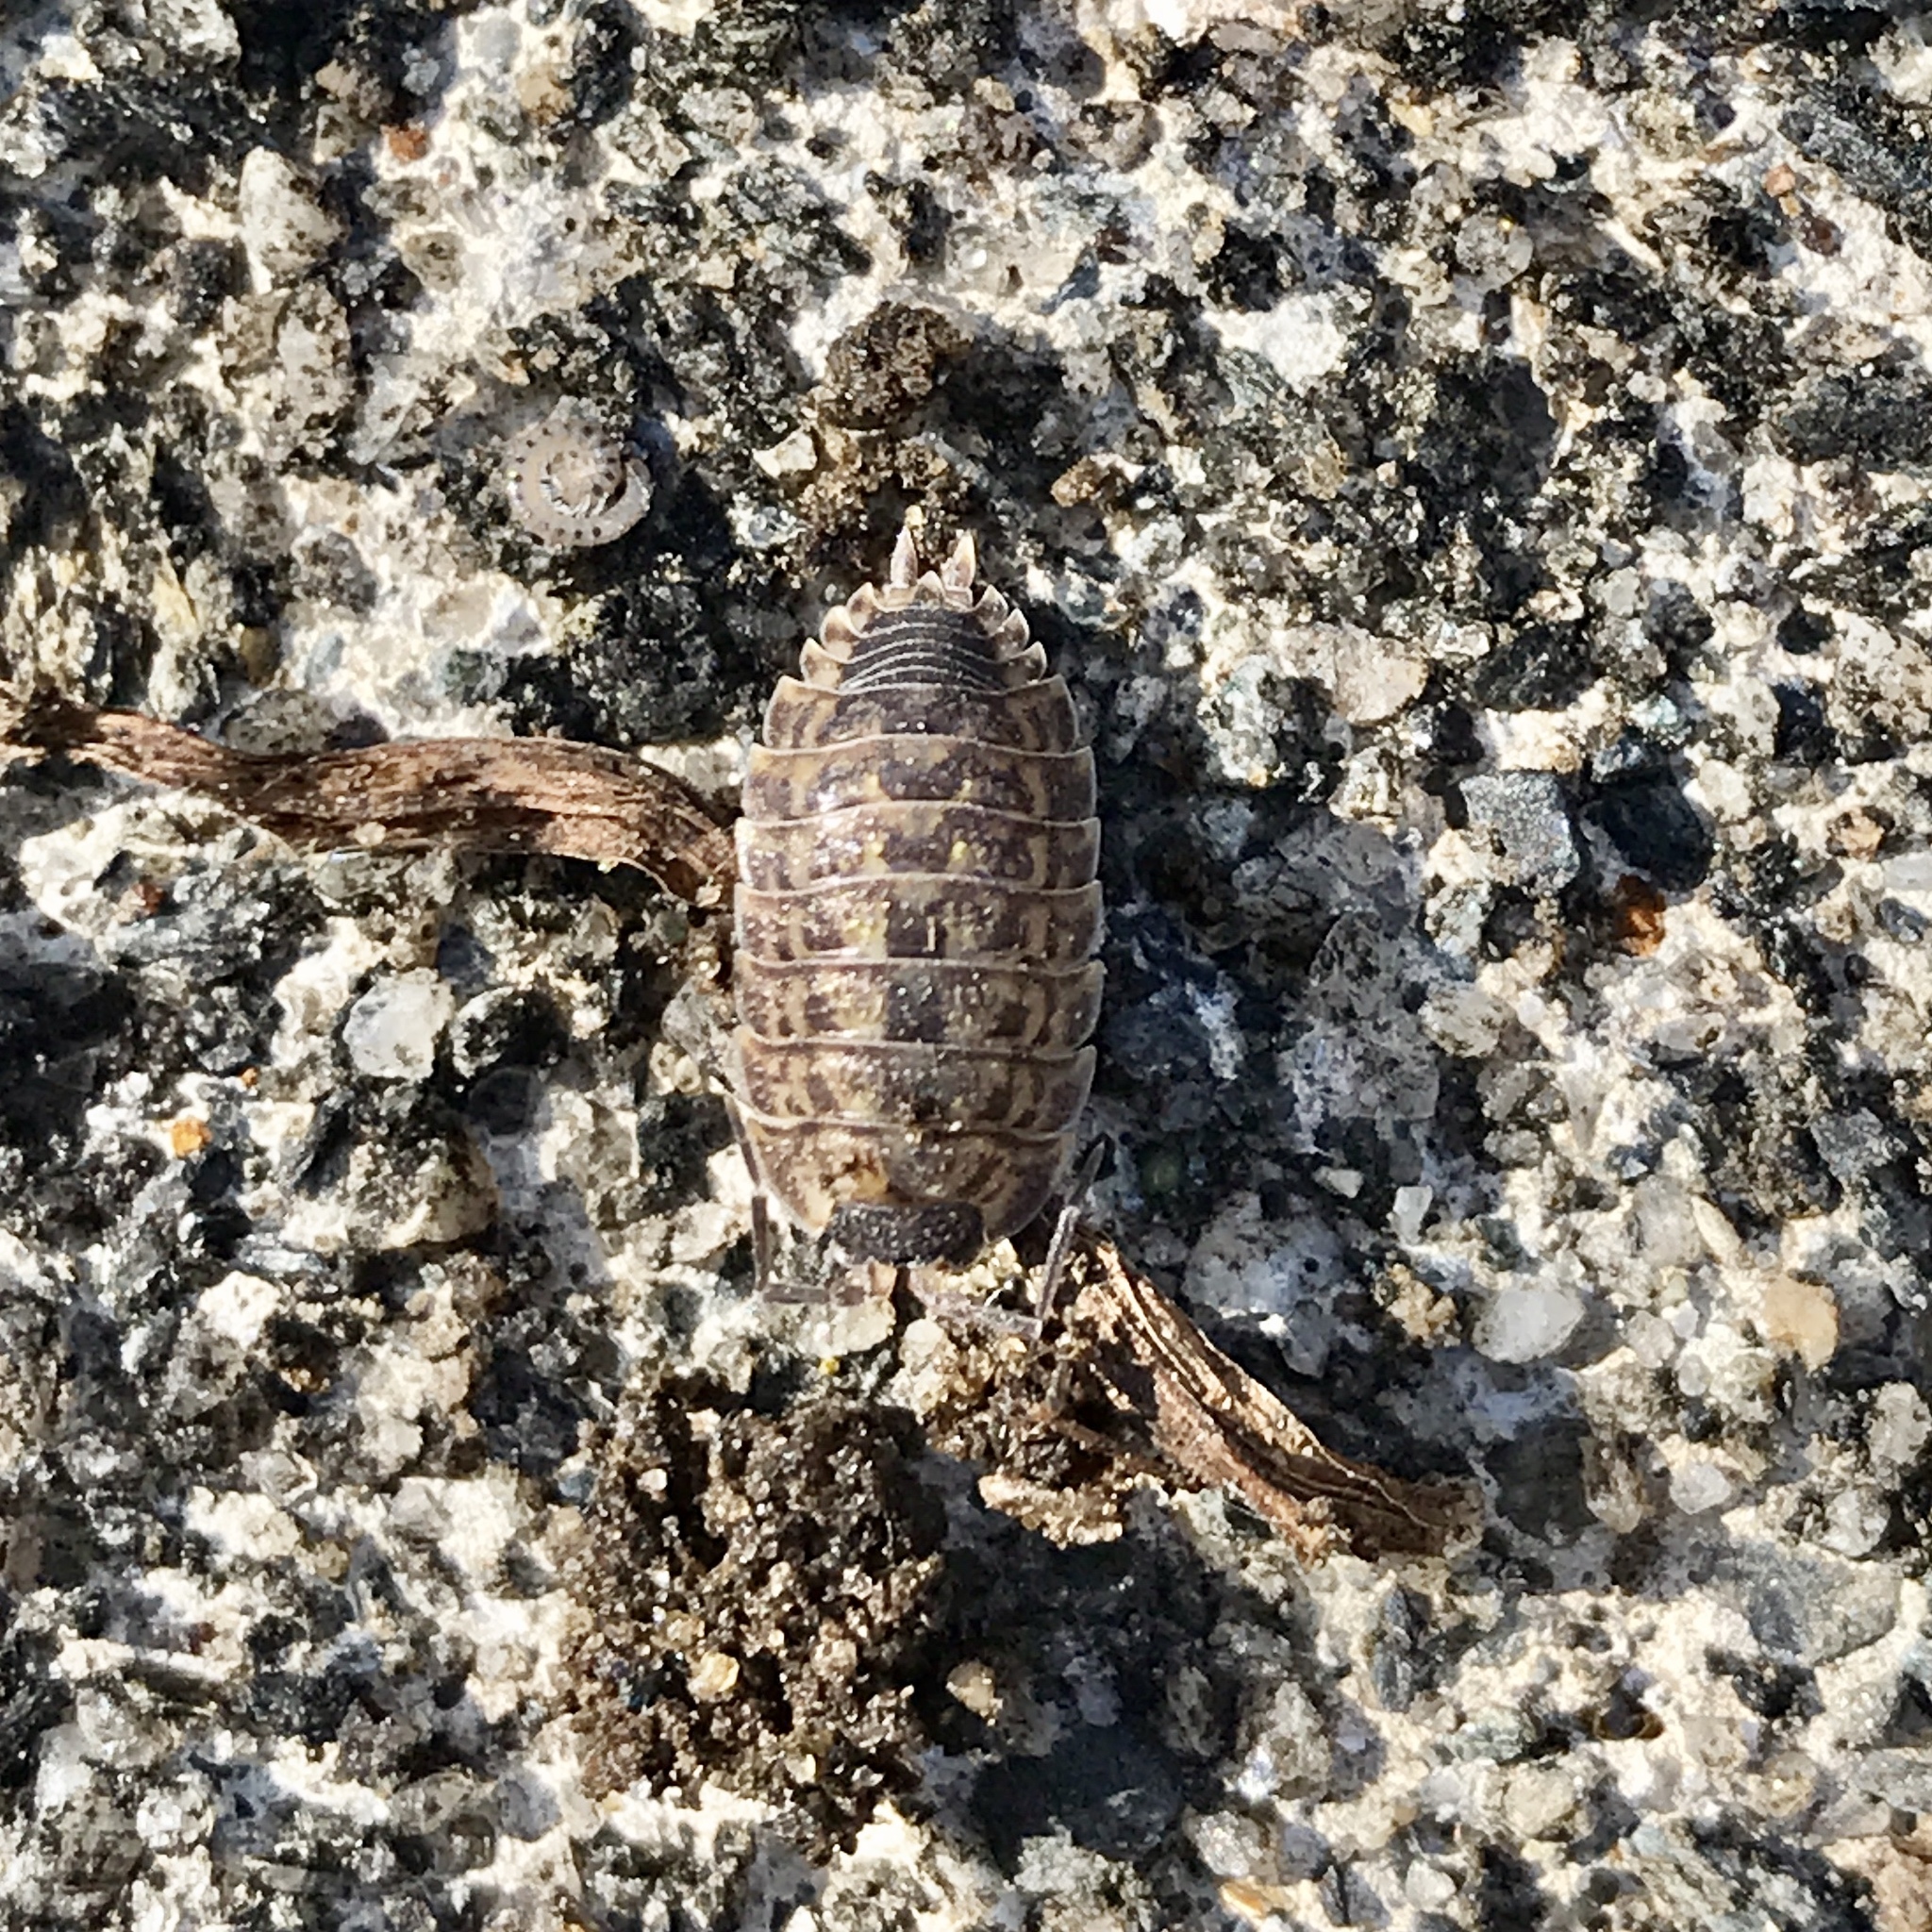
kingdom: Animalia
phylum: Arthropoda
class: Malacostraca
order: Isopoda
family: Trachelipodidae
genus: Trachelipus
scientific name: Trachelipus rathkii
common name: Isopod
